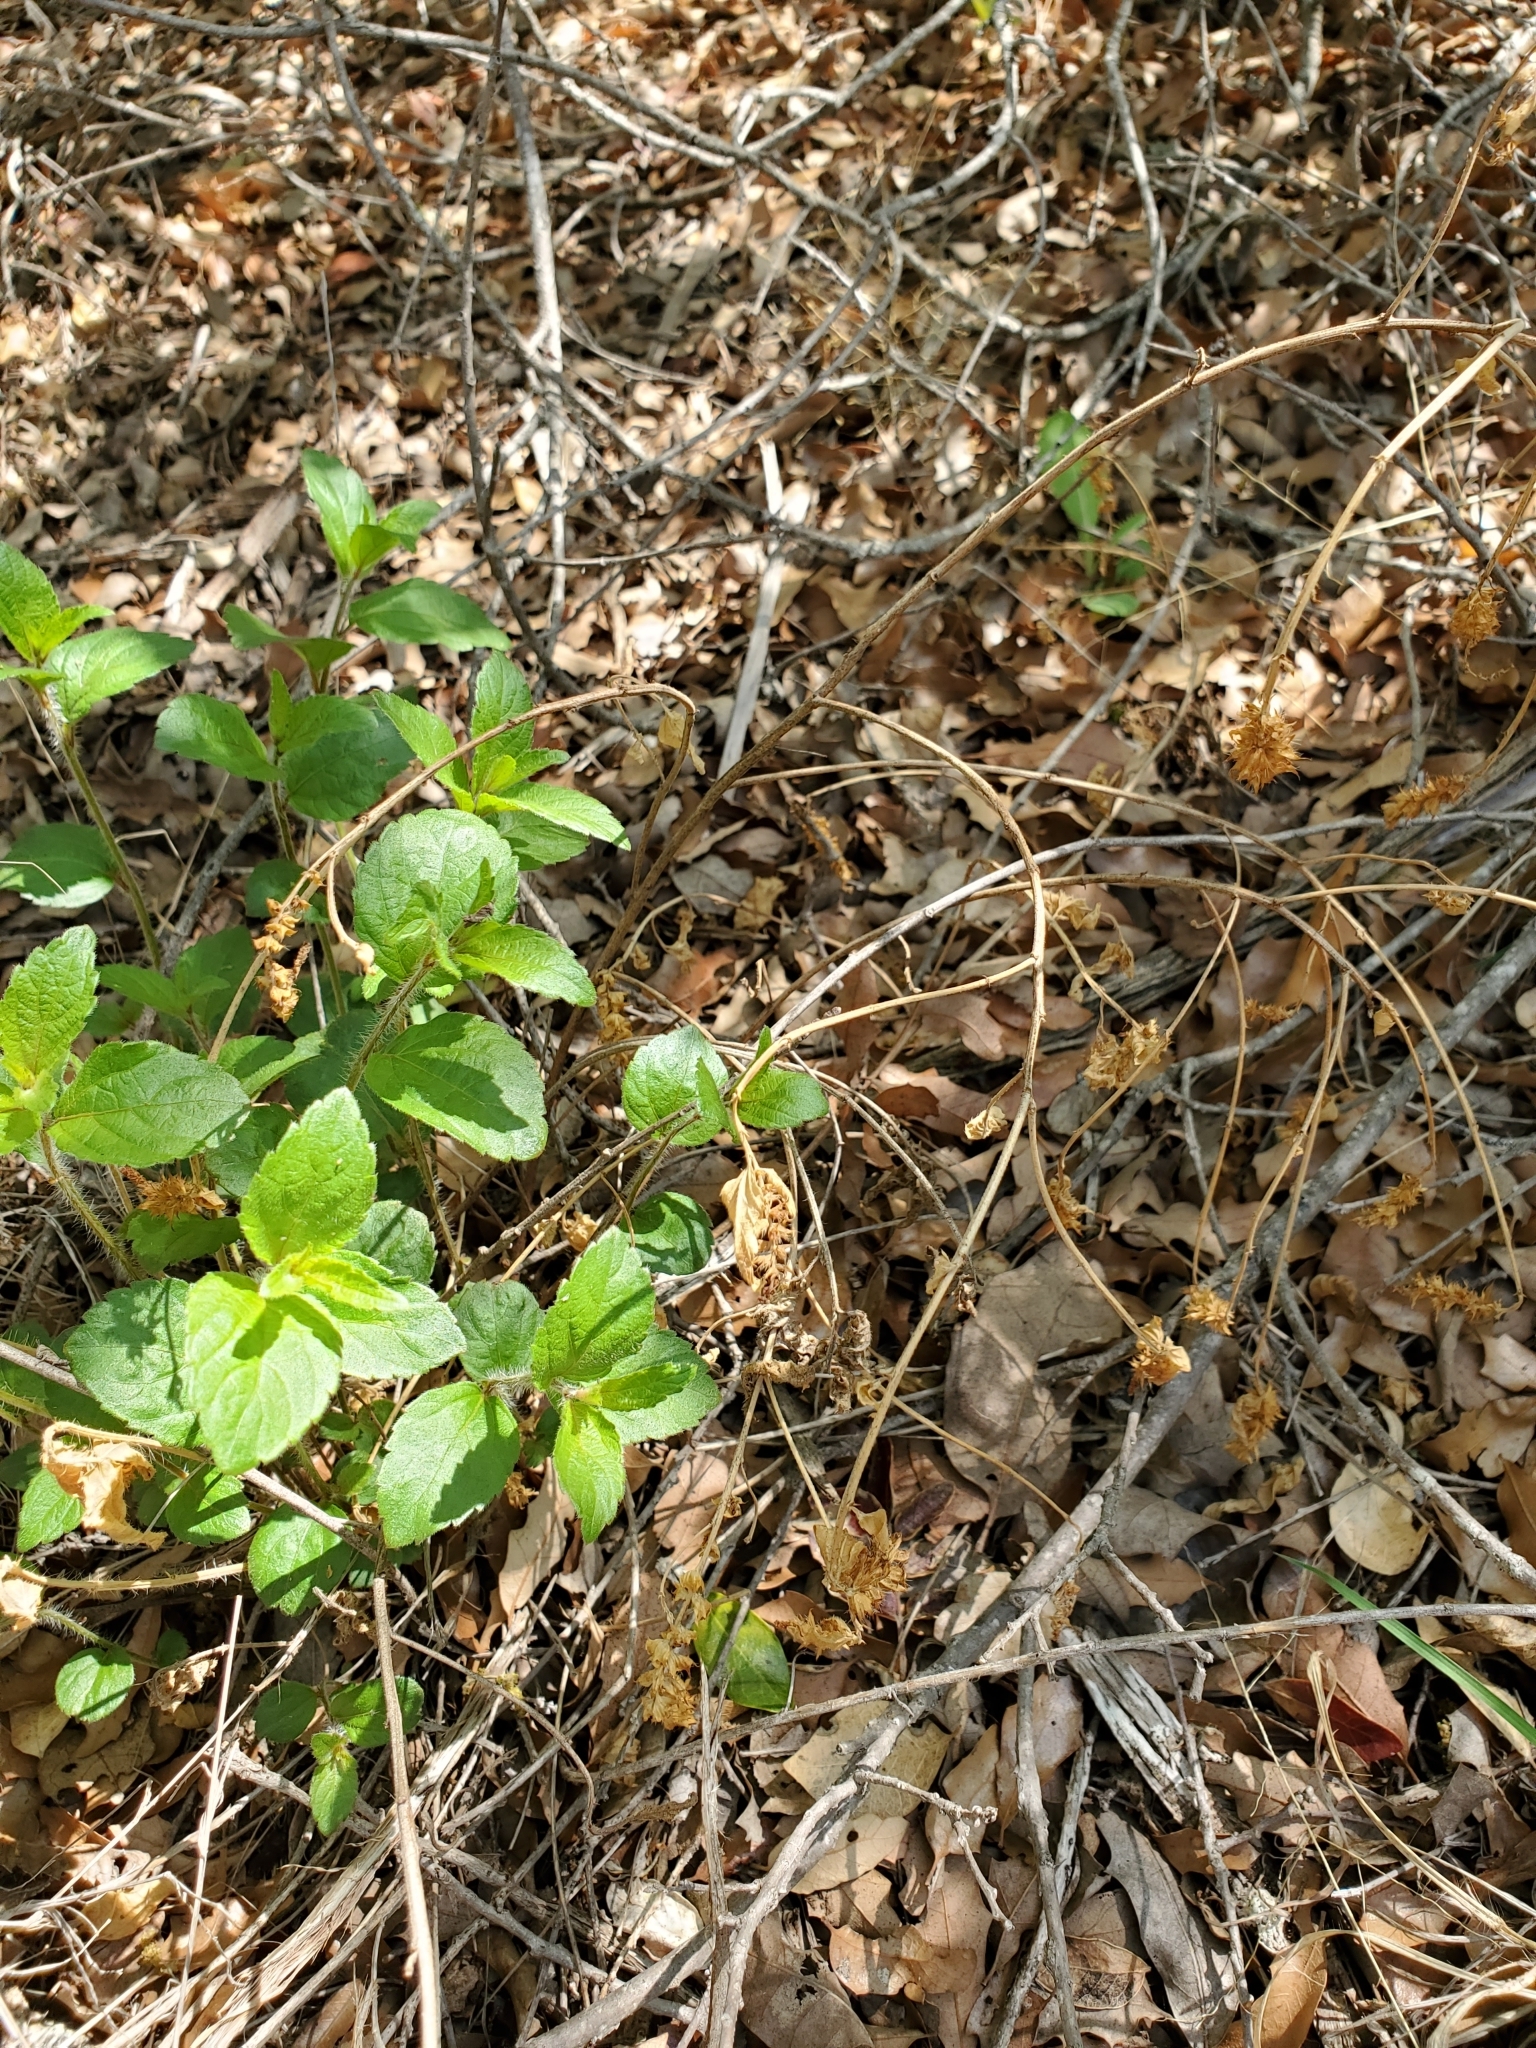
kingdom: Plantae
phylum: Tracheophyta
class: Magnoliopsida
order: Malpighiales
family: Euphorbiaceae
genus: Acalypha
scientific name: Acalypha phleoides
